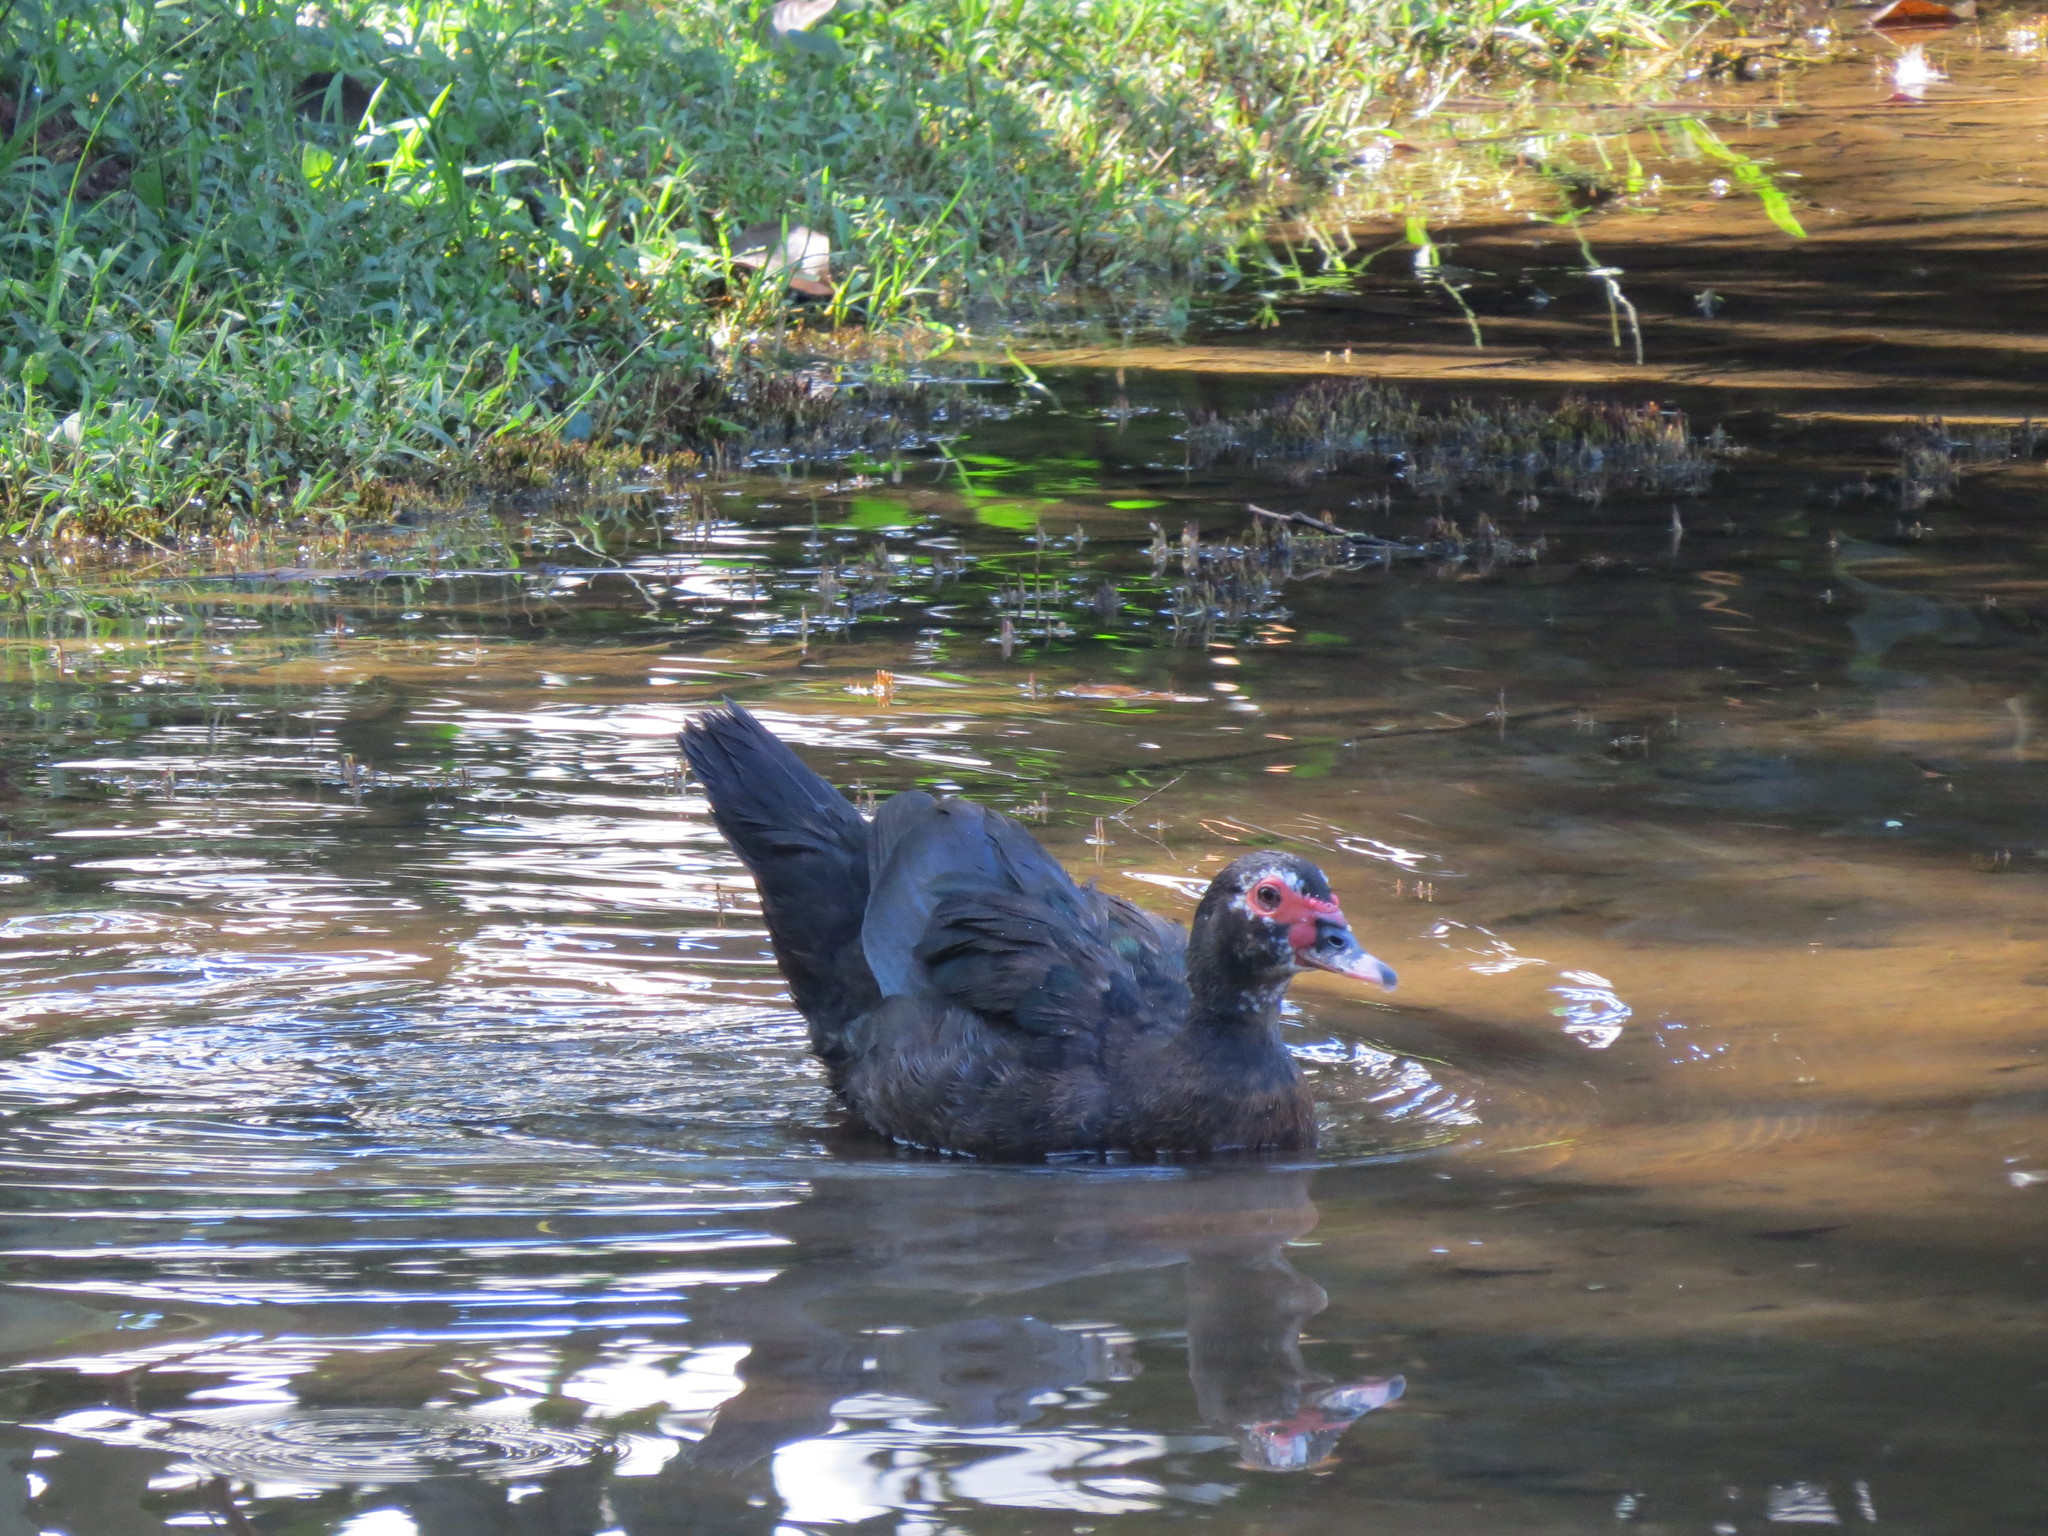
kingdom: Animalia
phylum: Chordata
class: Aves
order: Anseriformes
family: Anatidae
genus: Cairina
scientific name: Cairina moschata
